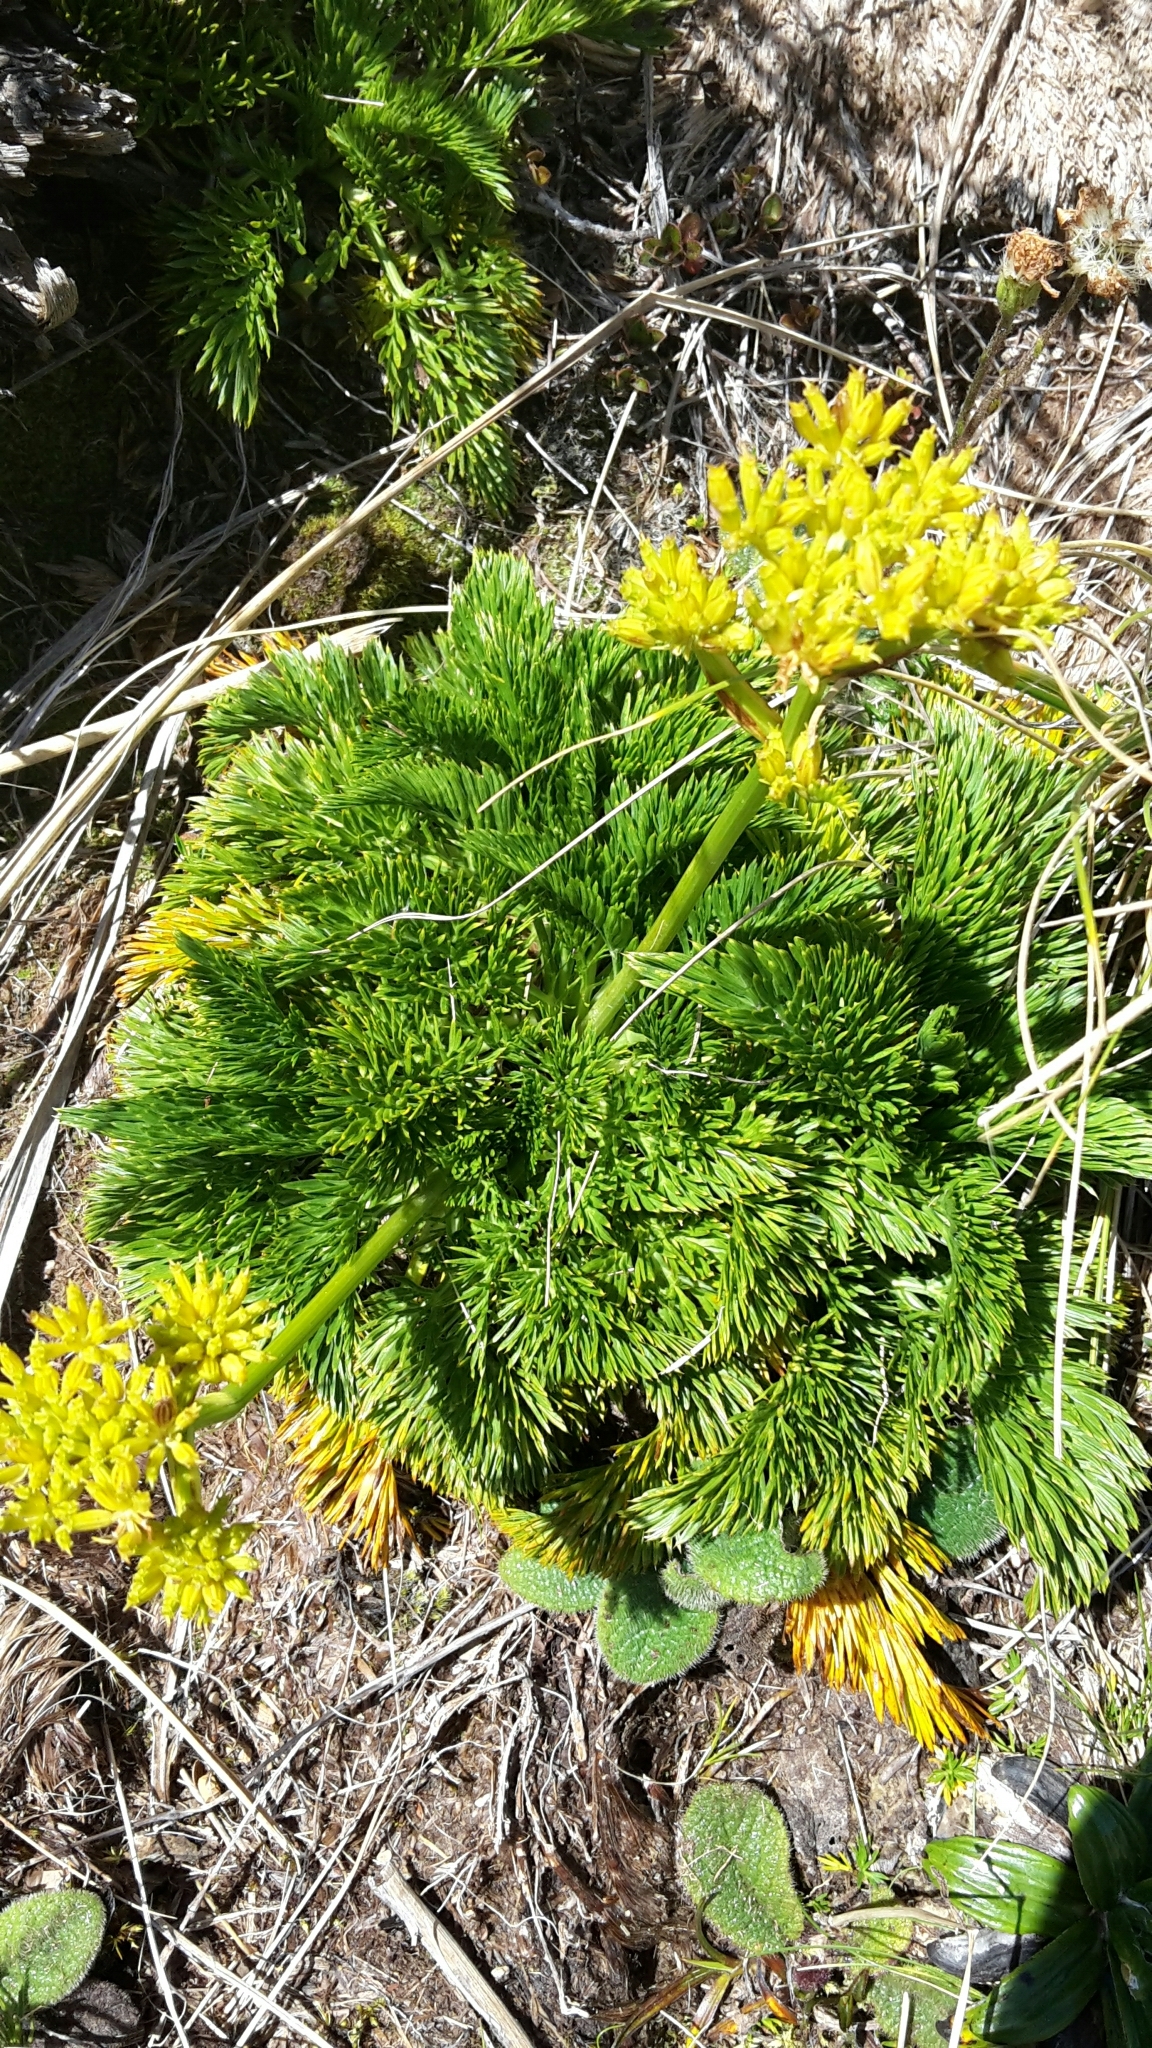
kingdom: Plantae
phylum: Tracheophyta
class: Magnoliopsida
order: Apiales
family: Apiaceae
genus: Aciphylla
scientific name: Aciphylla dissecta
